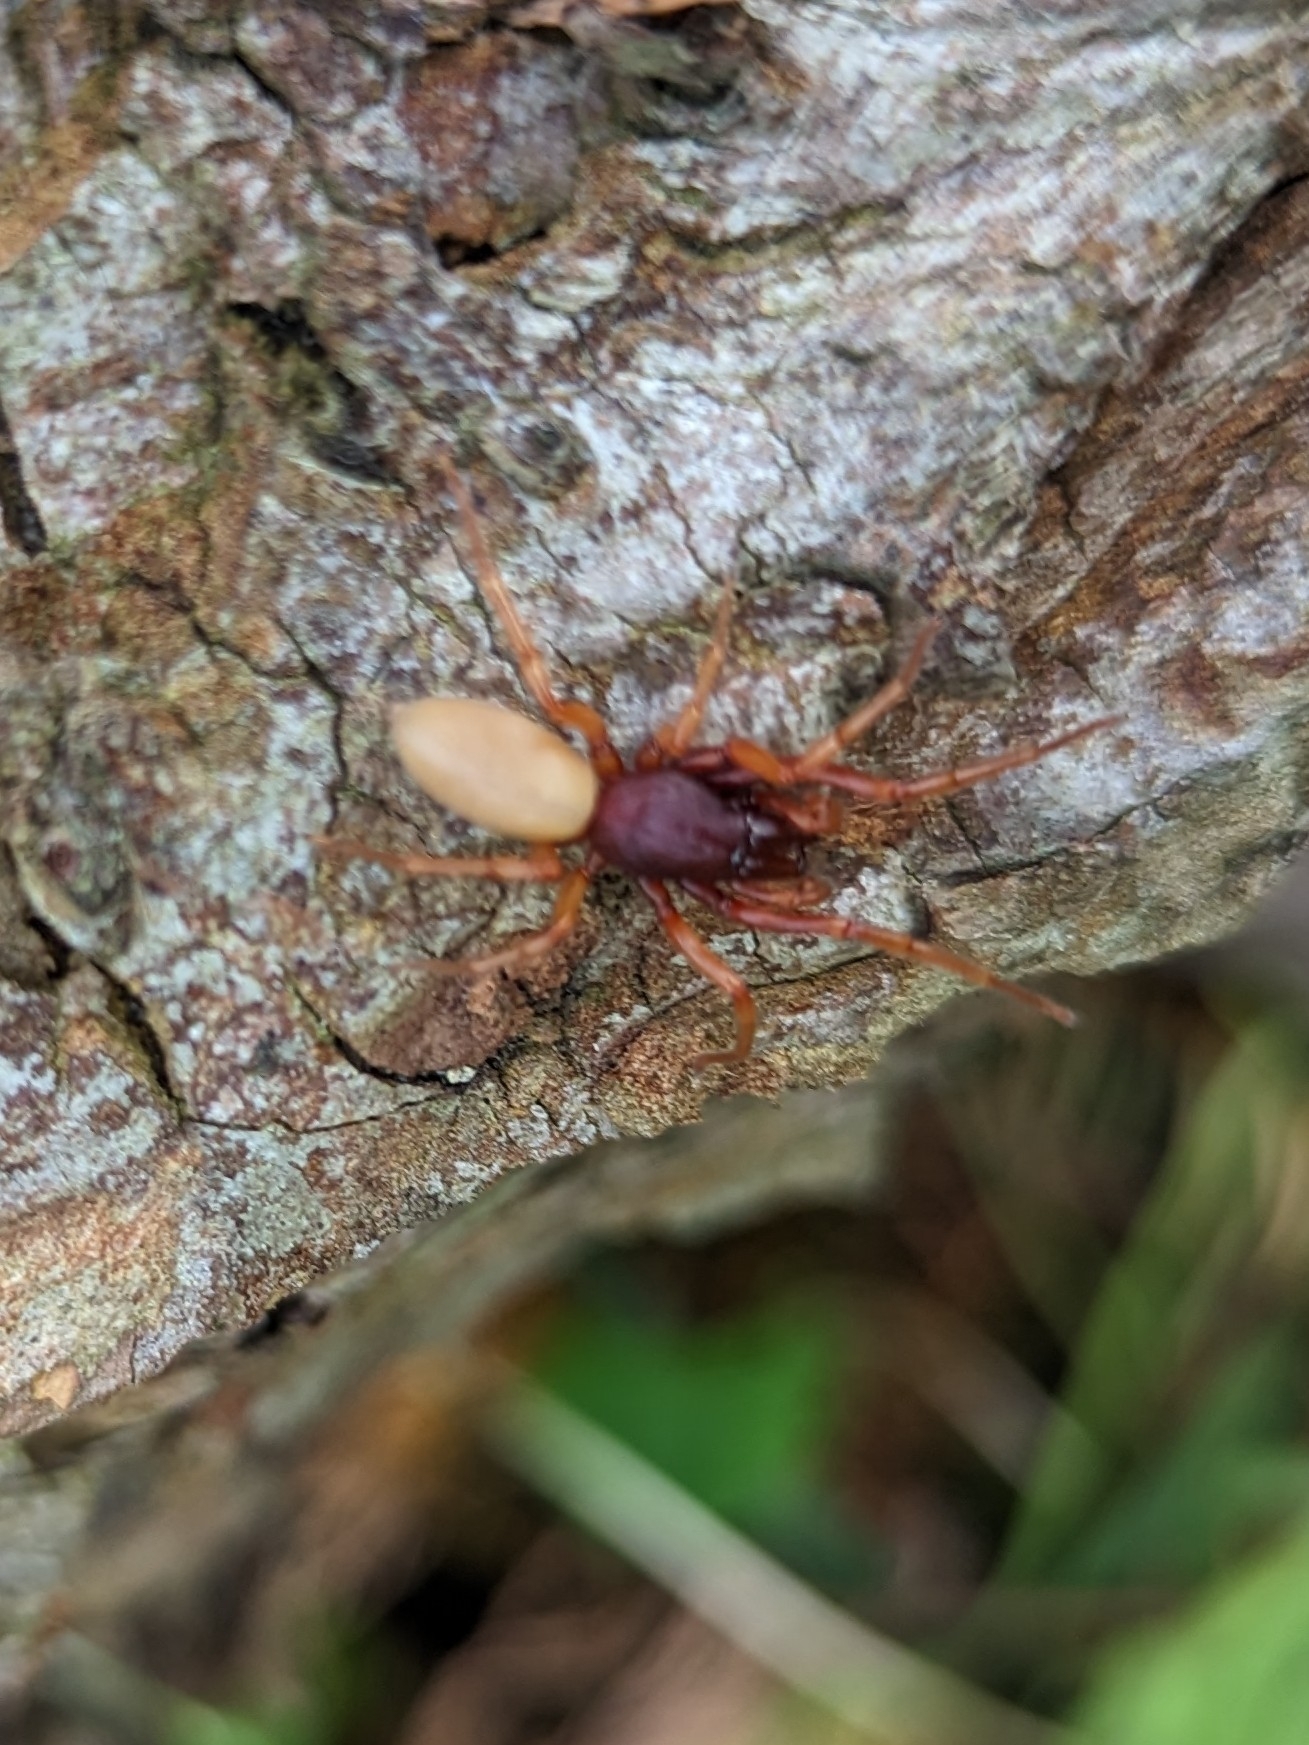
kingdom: Animalia
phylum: Arthropoda
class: Arachnida
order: Araneae
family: Dysderidae
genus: Dysdera
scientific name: Dysdera crocata
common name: Woodlouse spider
